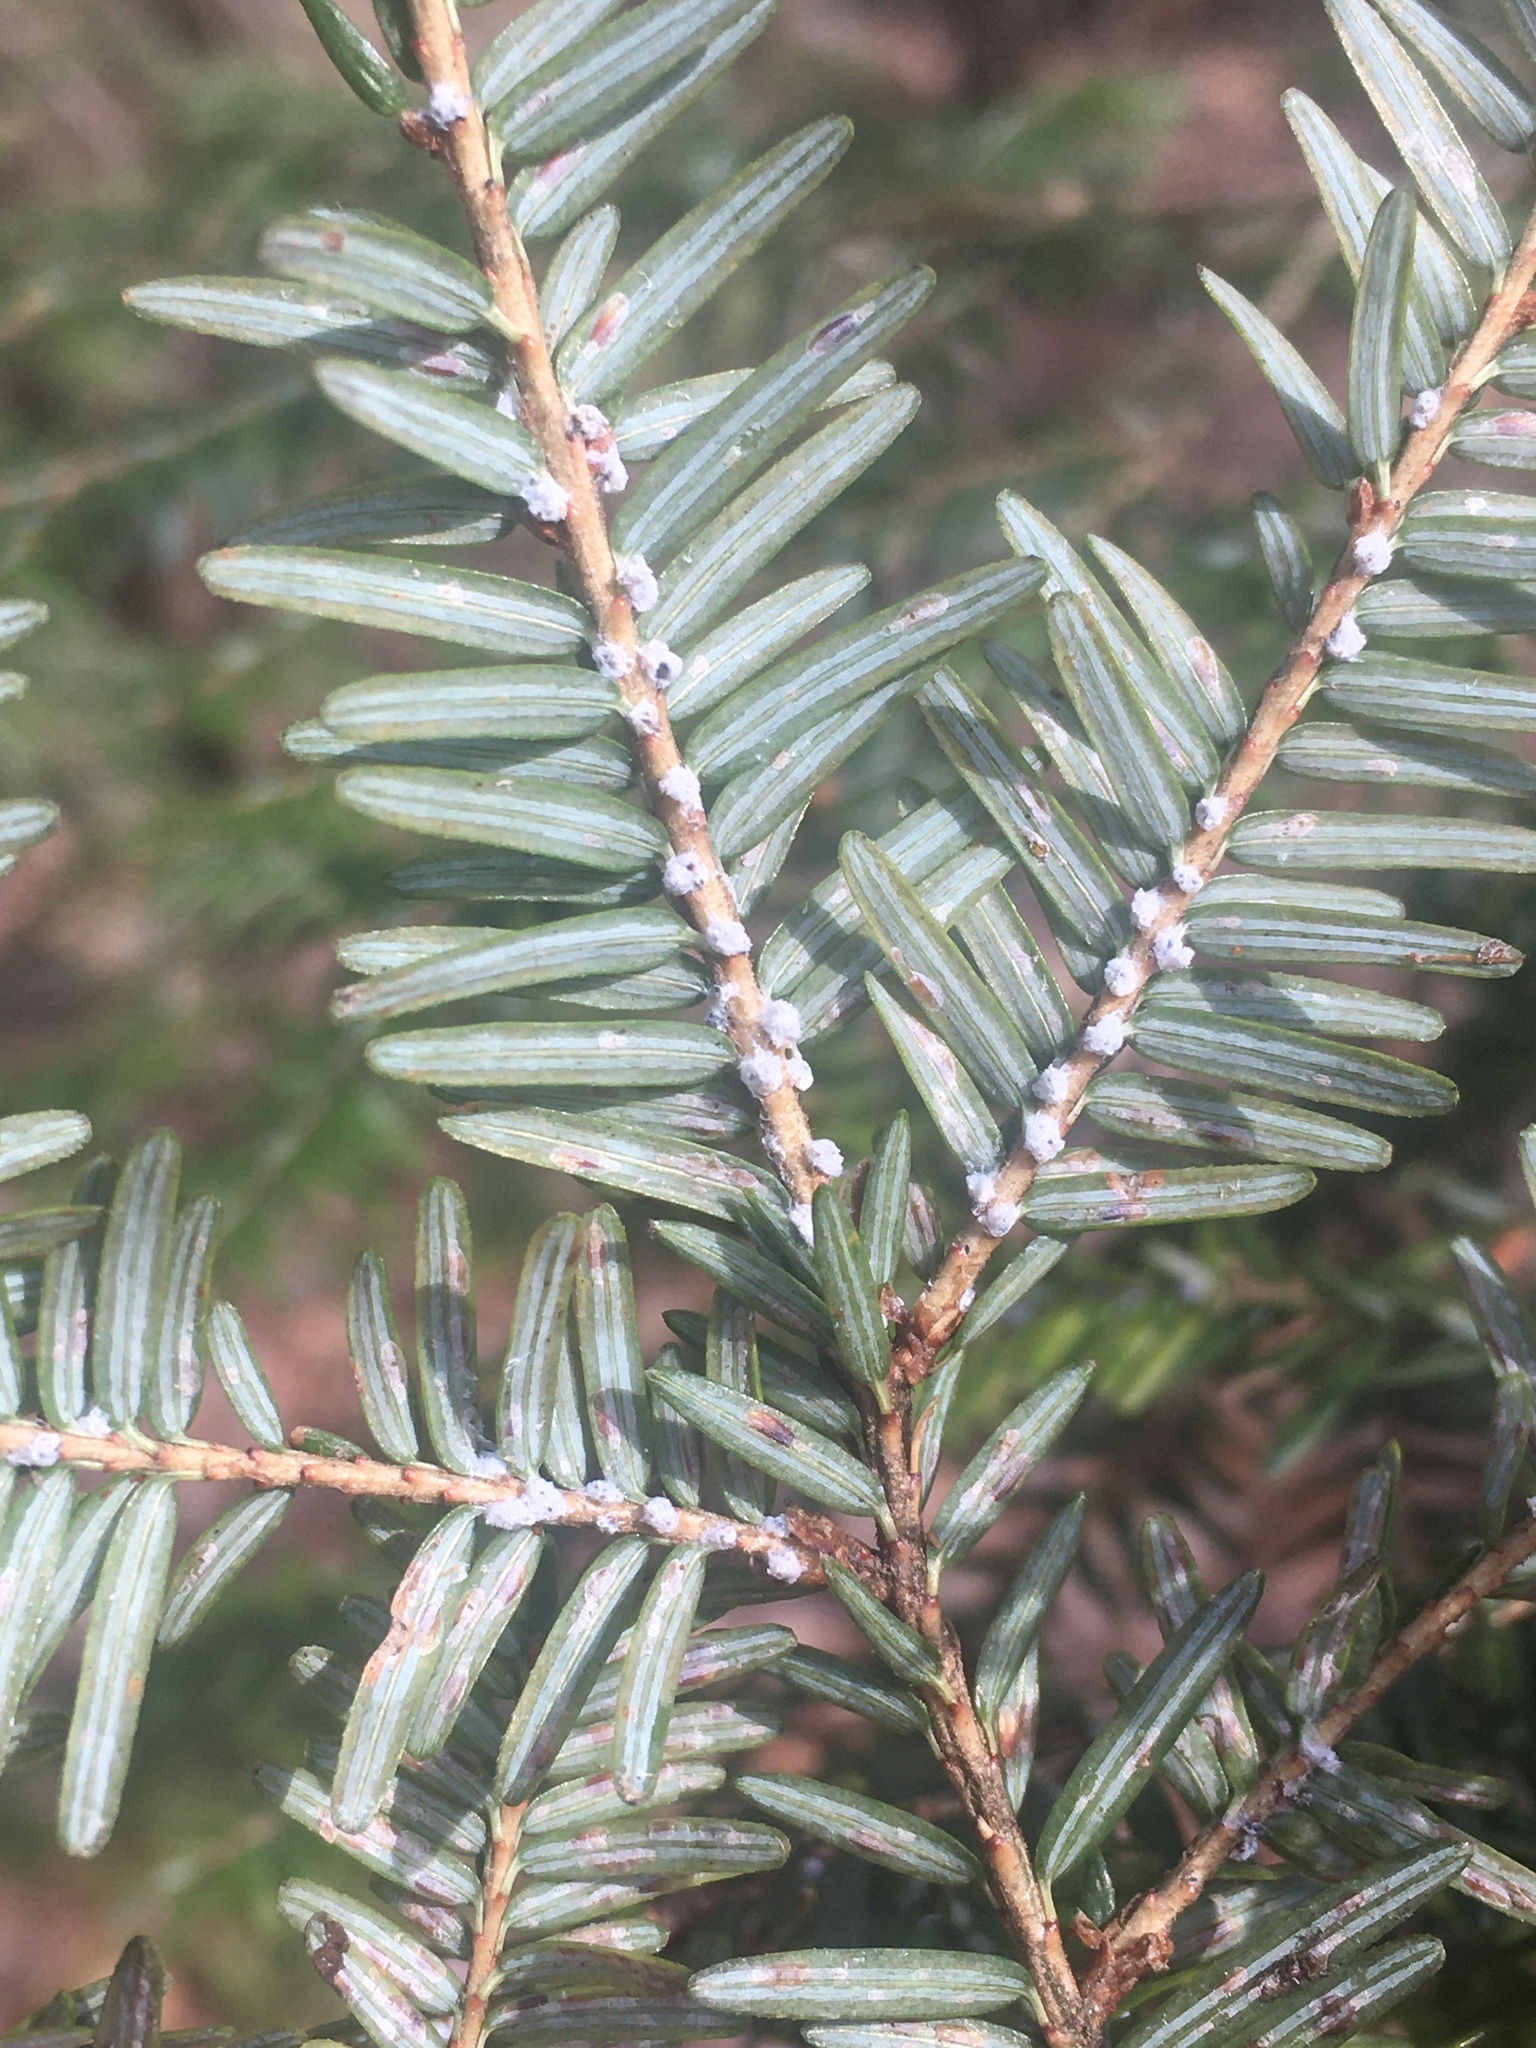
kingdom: Animalia
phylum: Arthropoda
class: Insecta
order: Hemiptera
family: Adelgidae
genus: Adelges
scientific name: Adelges tsugae
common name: Hemlock woolly adelgid
